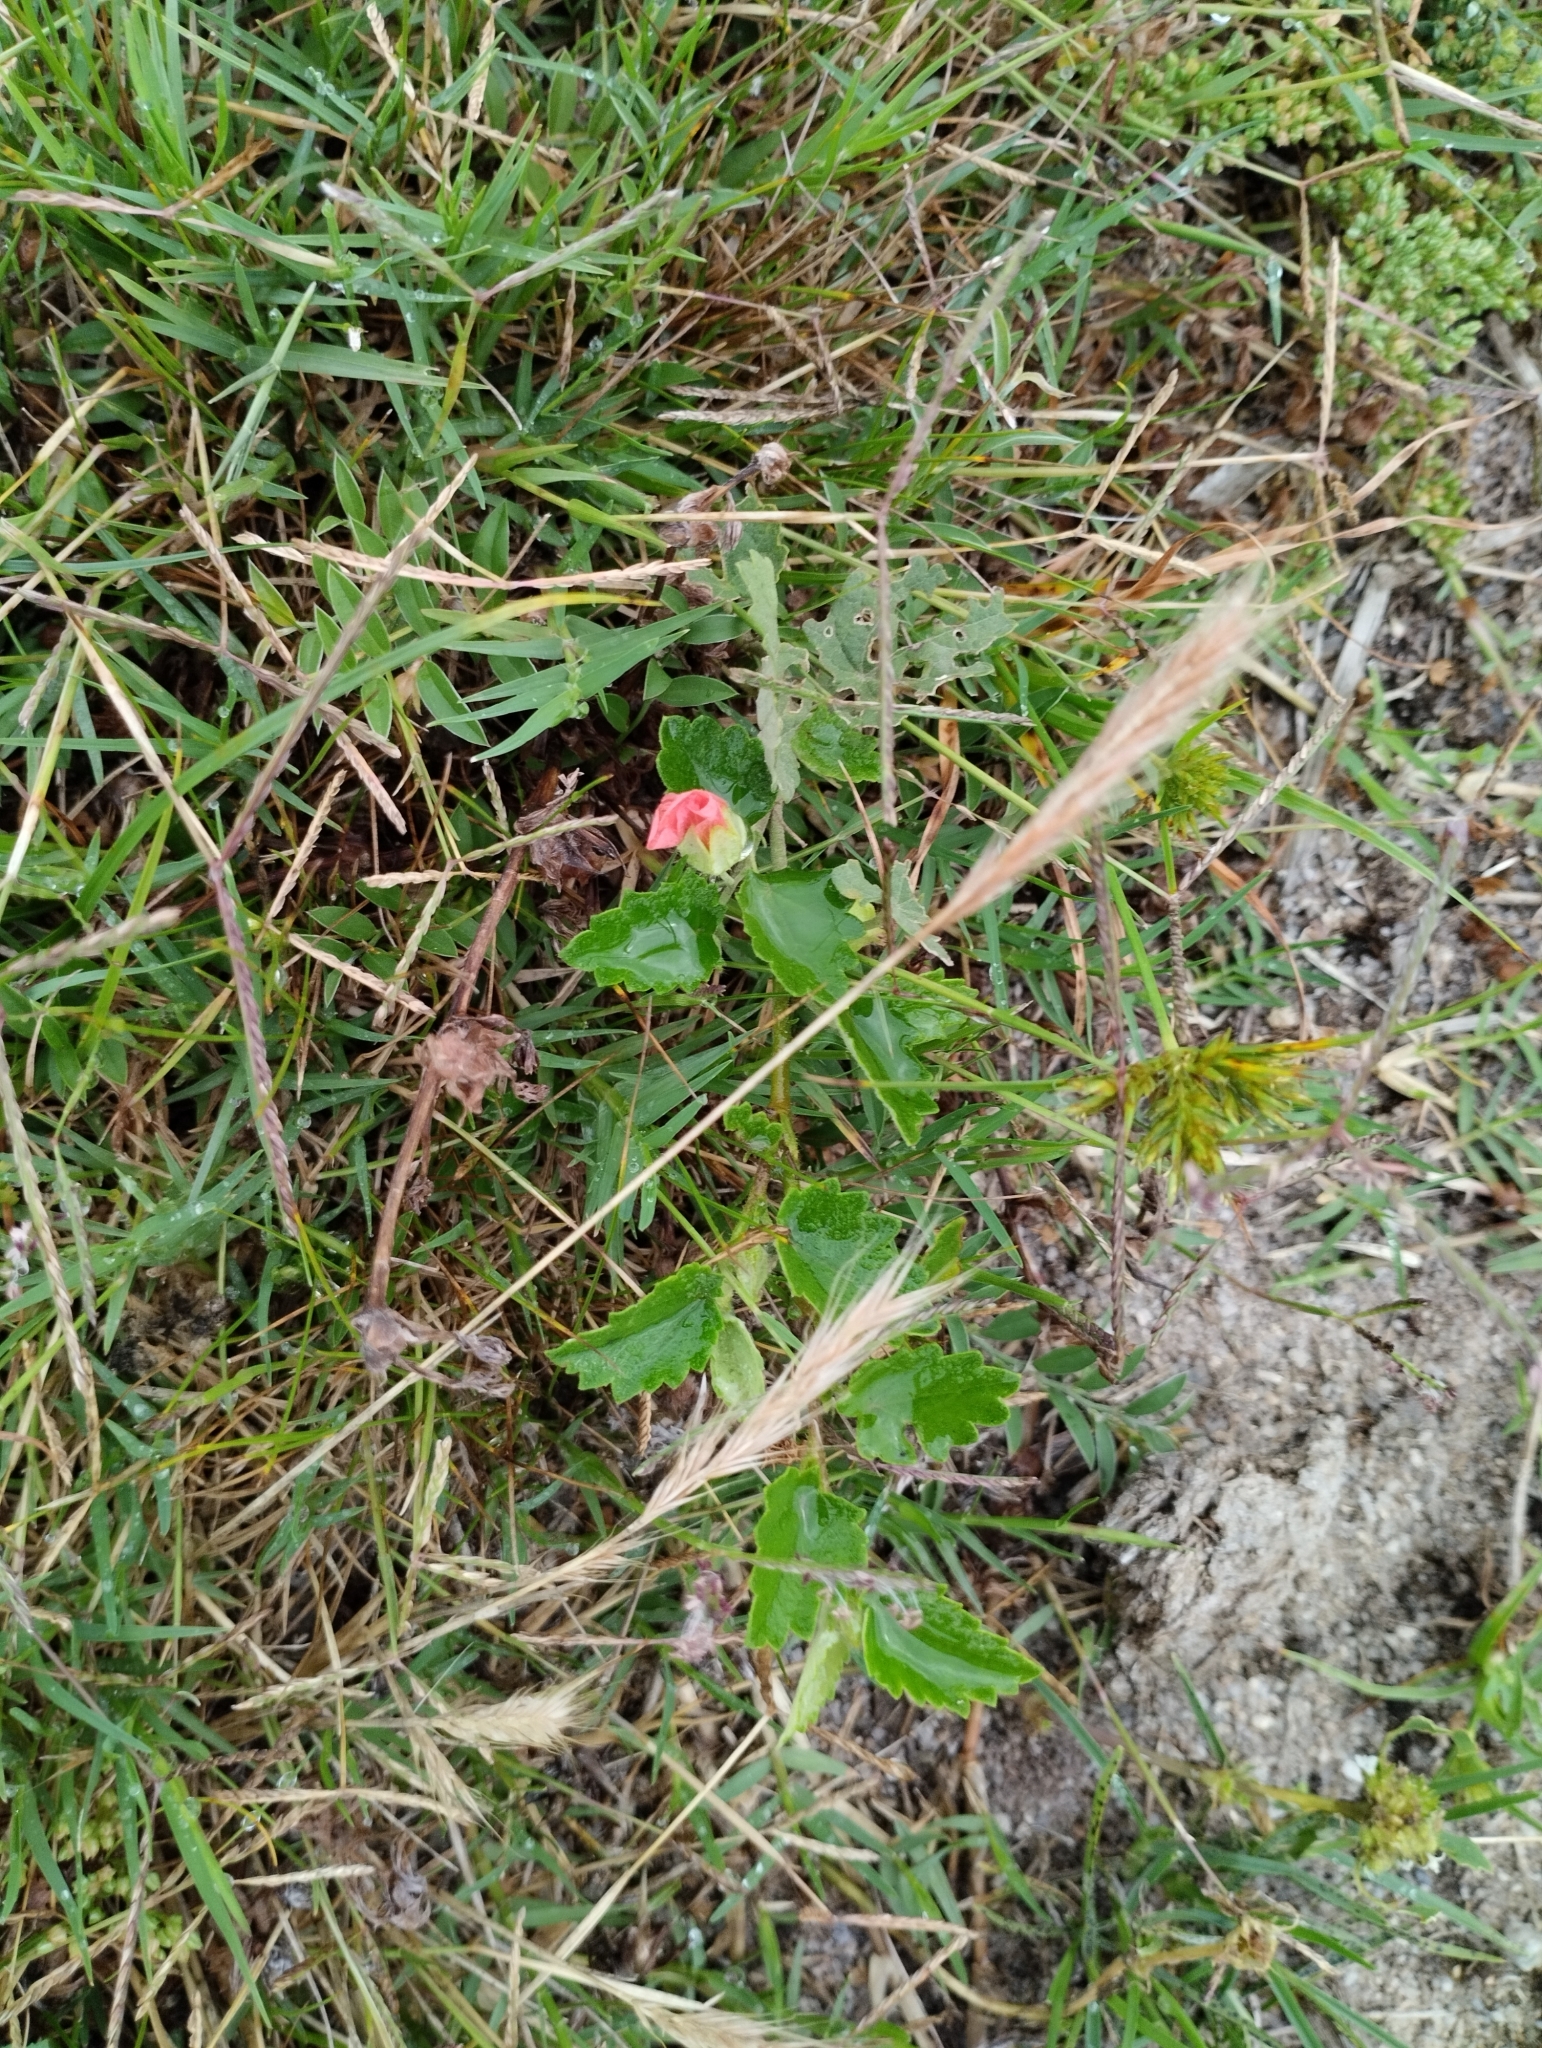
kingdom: Plantae
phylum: Tracheophyta
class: Magnoliopsida
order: Malvales
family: Malvaceae
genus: Pavonia
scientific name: Pavonia glechomoides
